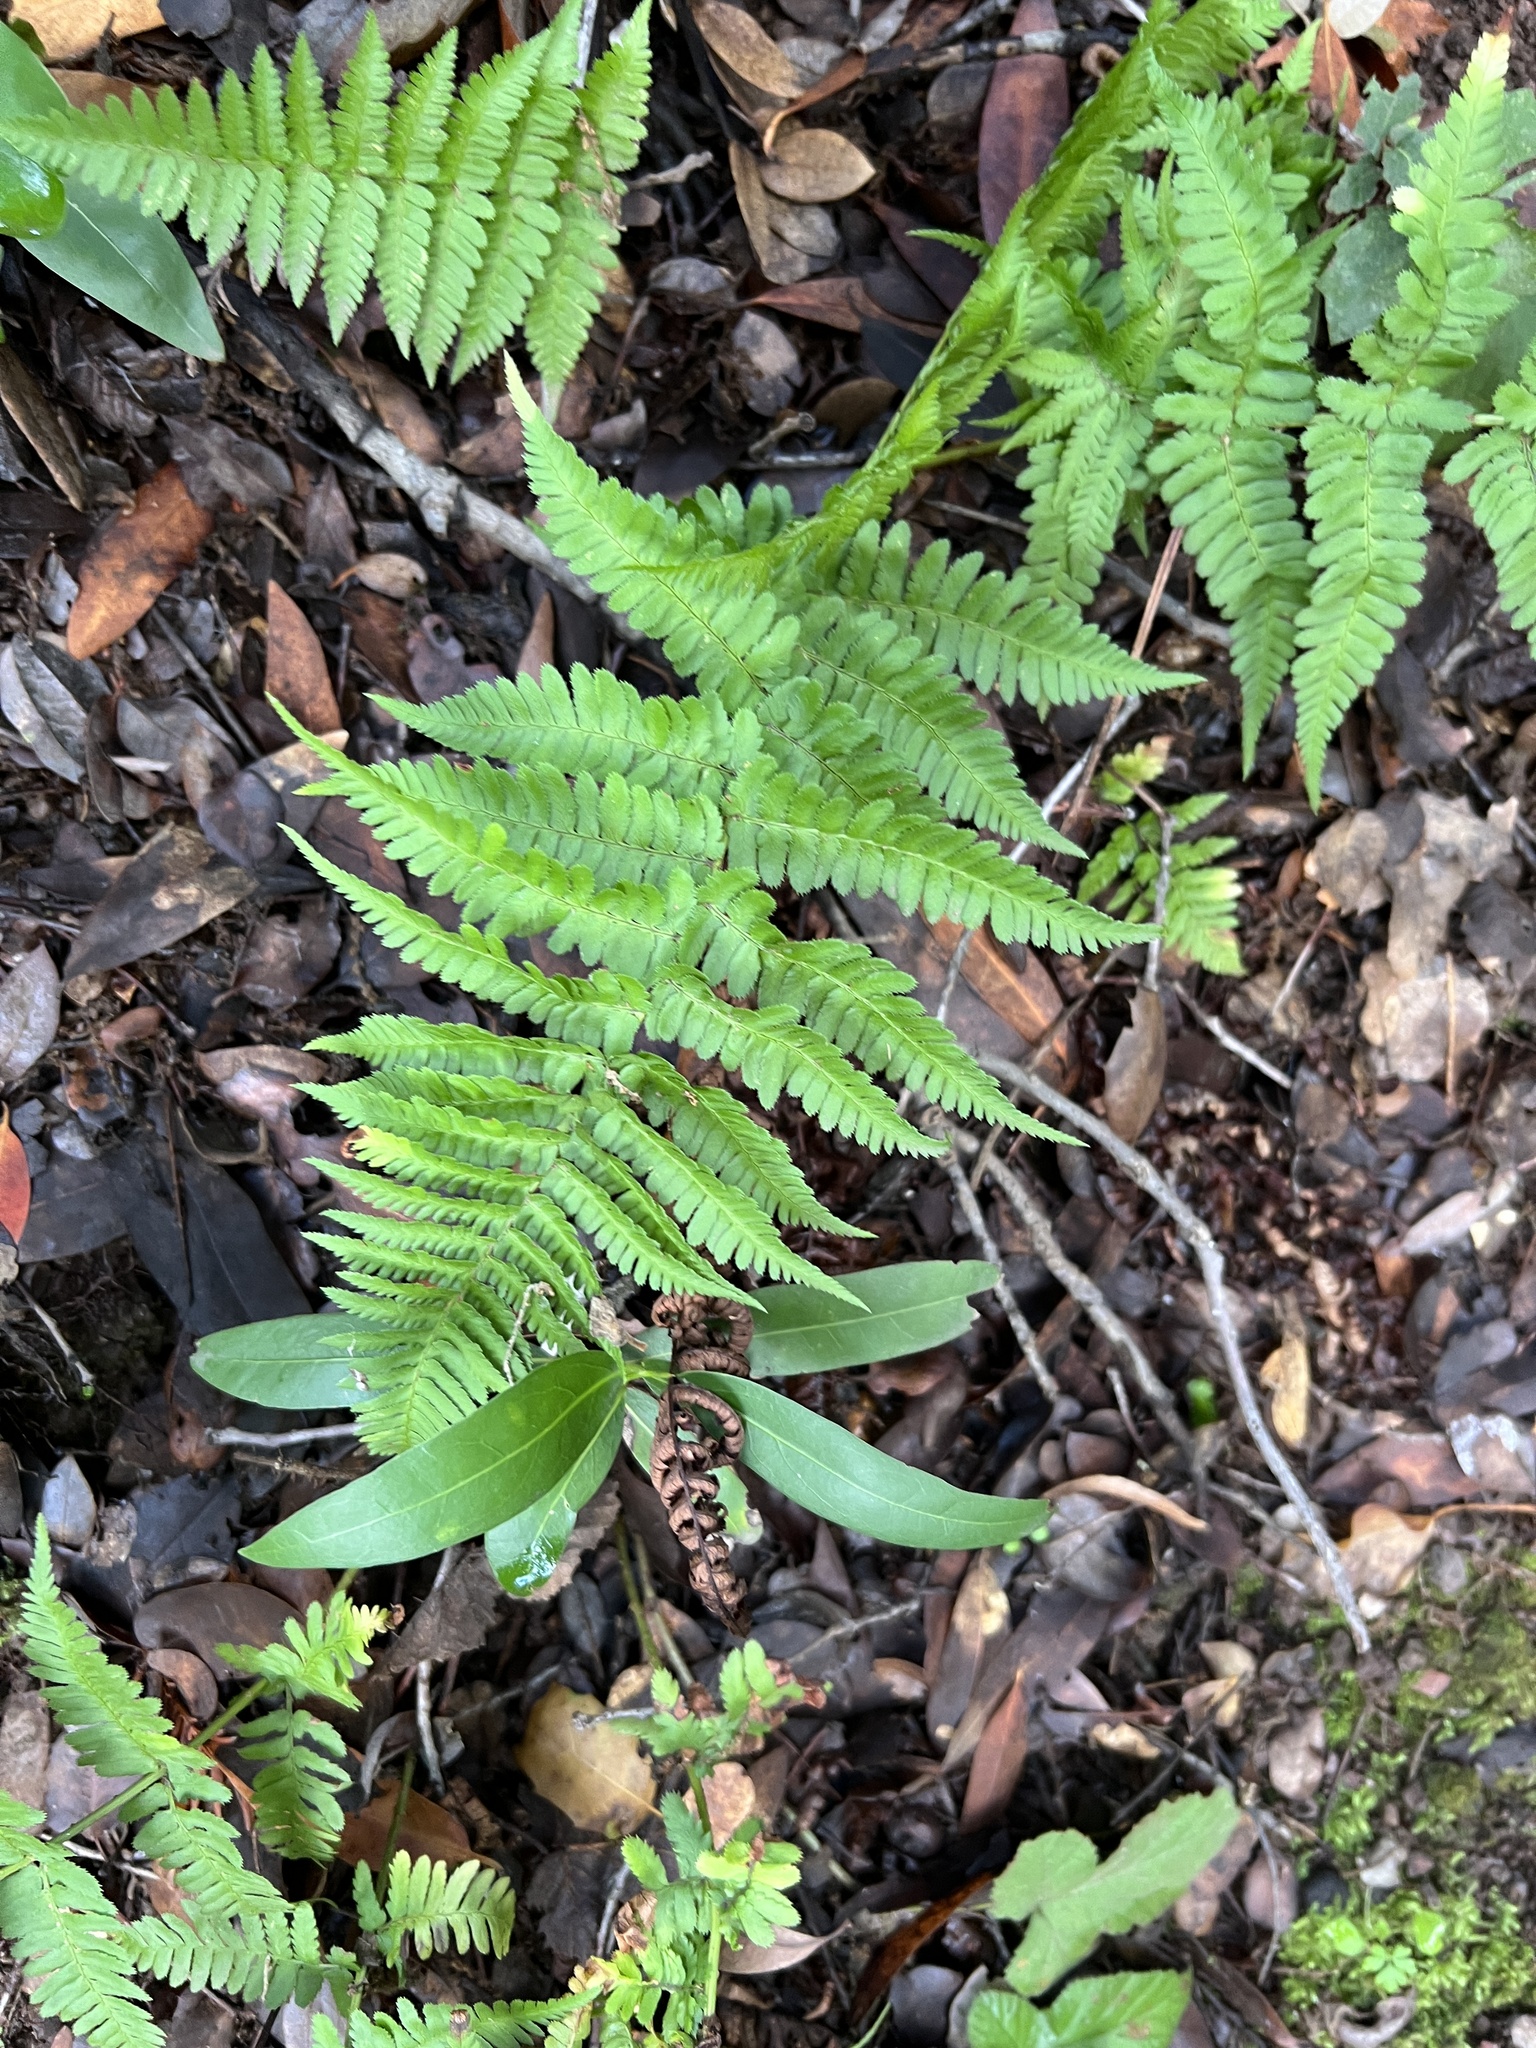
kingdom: Plantae
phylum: Tracheophyta
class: Polypodiopsida
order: Polypodiales
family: Dryopteridaceae
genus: Dryopteris
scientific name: Dryopteris arguta
